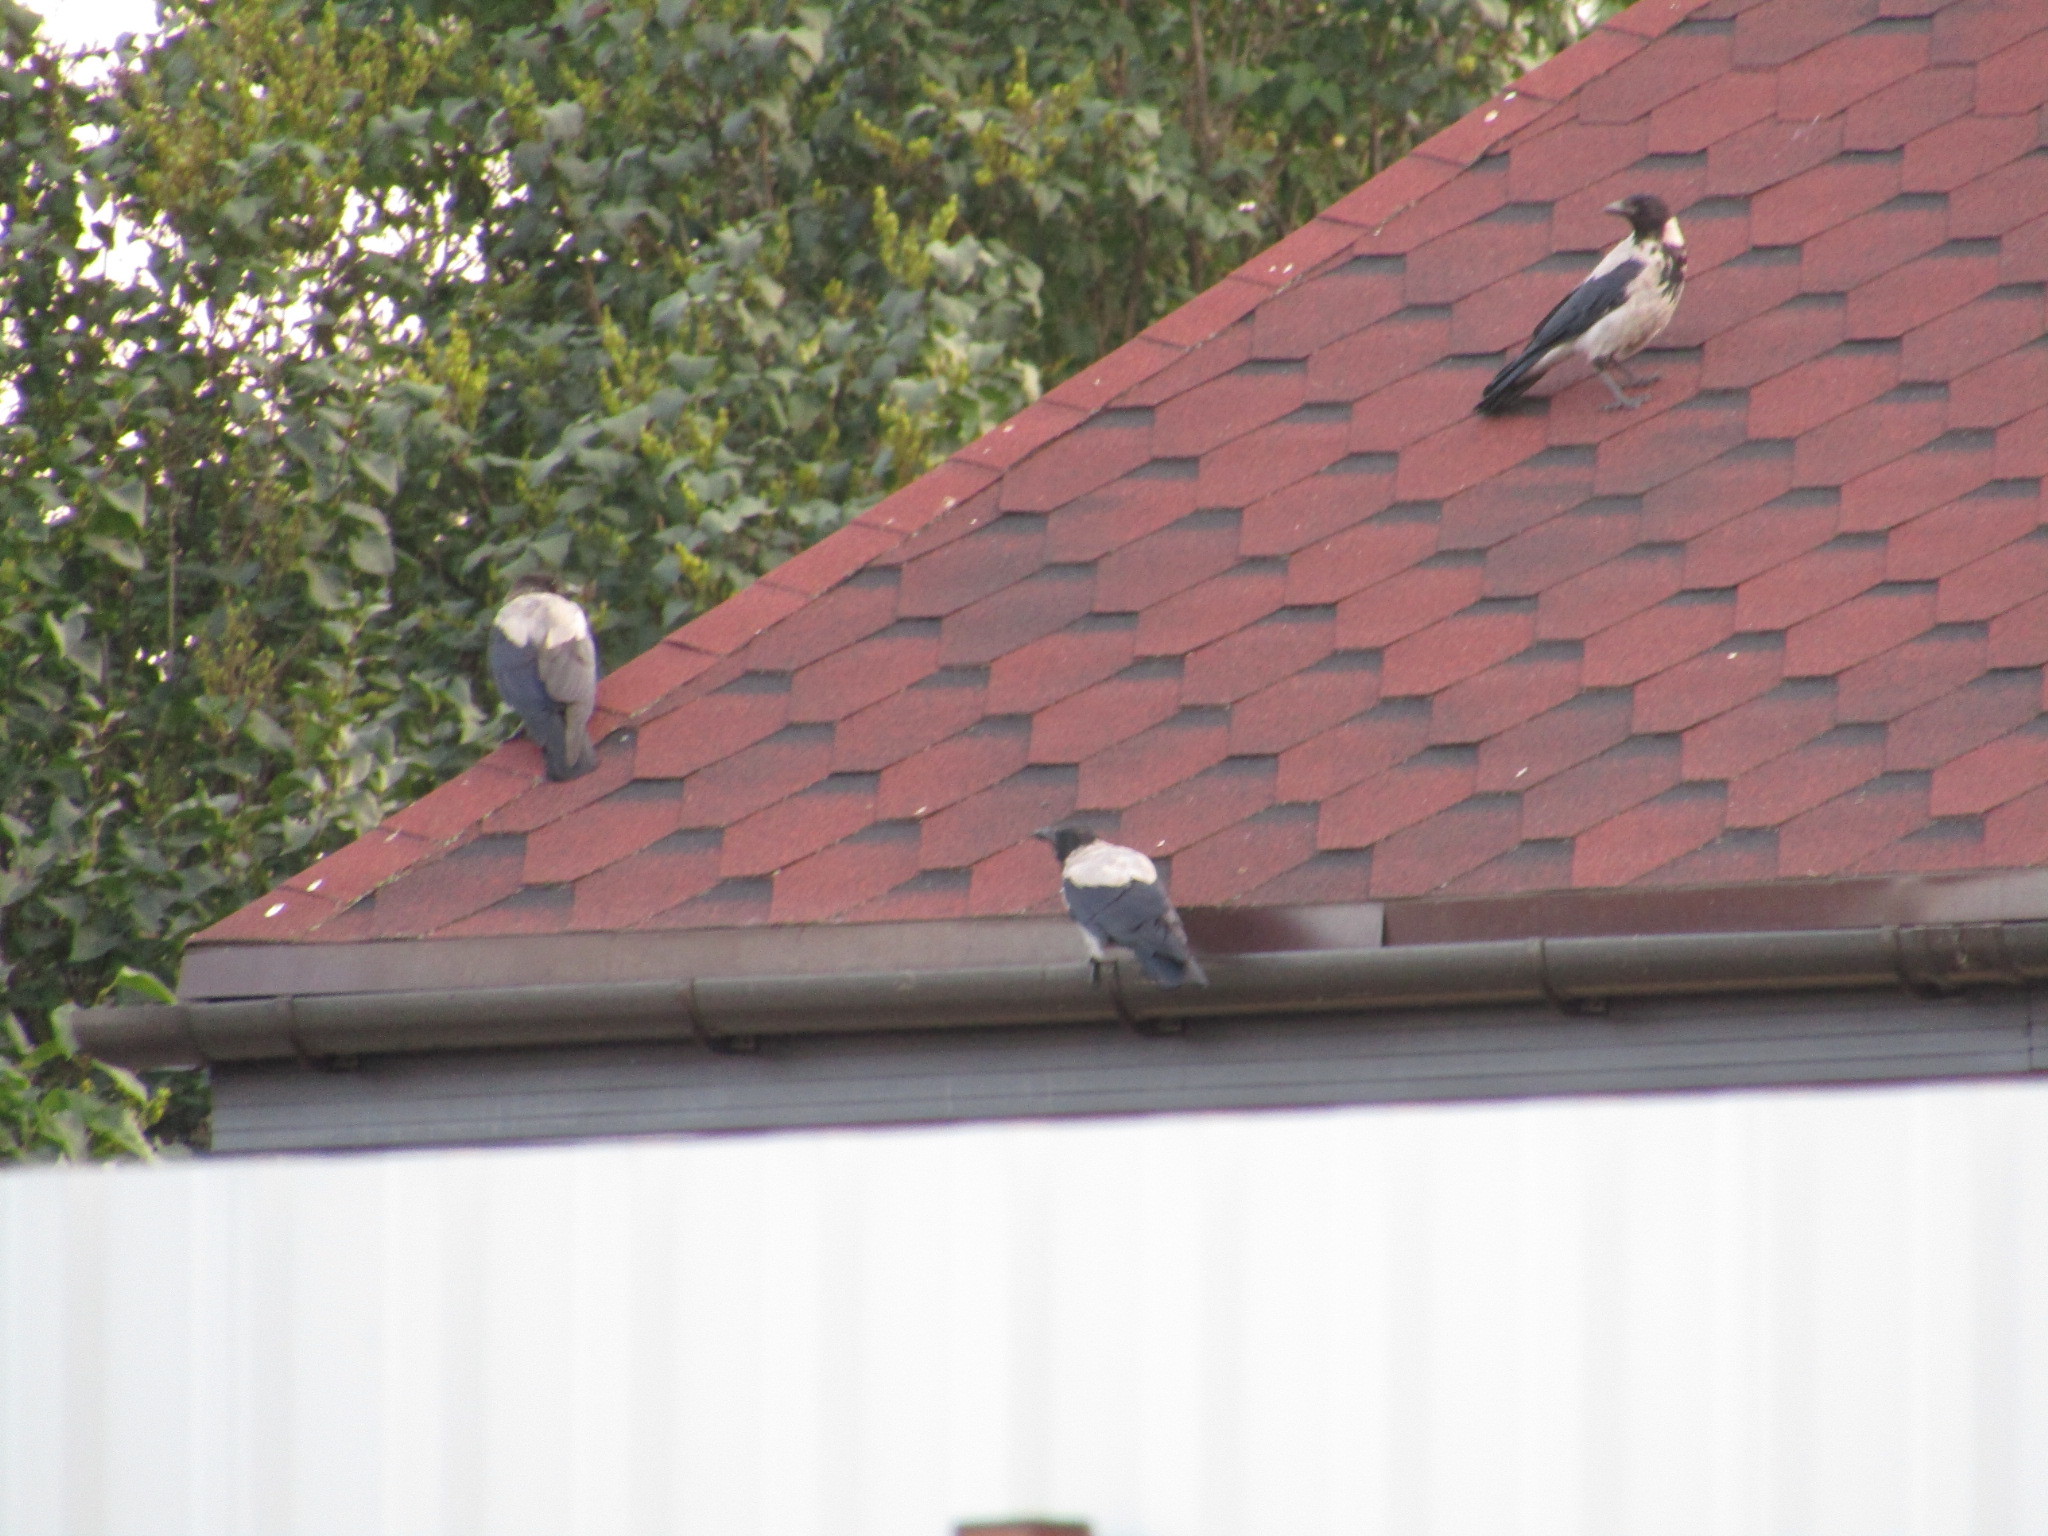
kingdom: Animalia
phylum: Chordata
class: Aves
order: Passeriformes
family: Corvidae
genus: Corvus
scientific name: Corvus cornix
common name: Hooded crow
